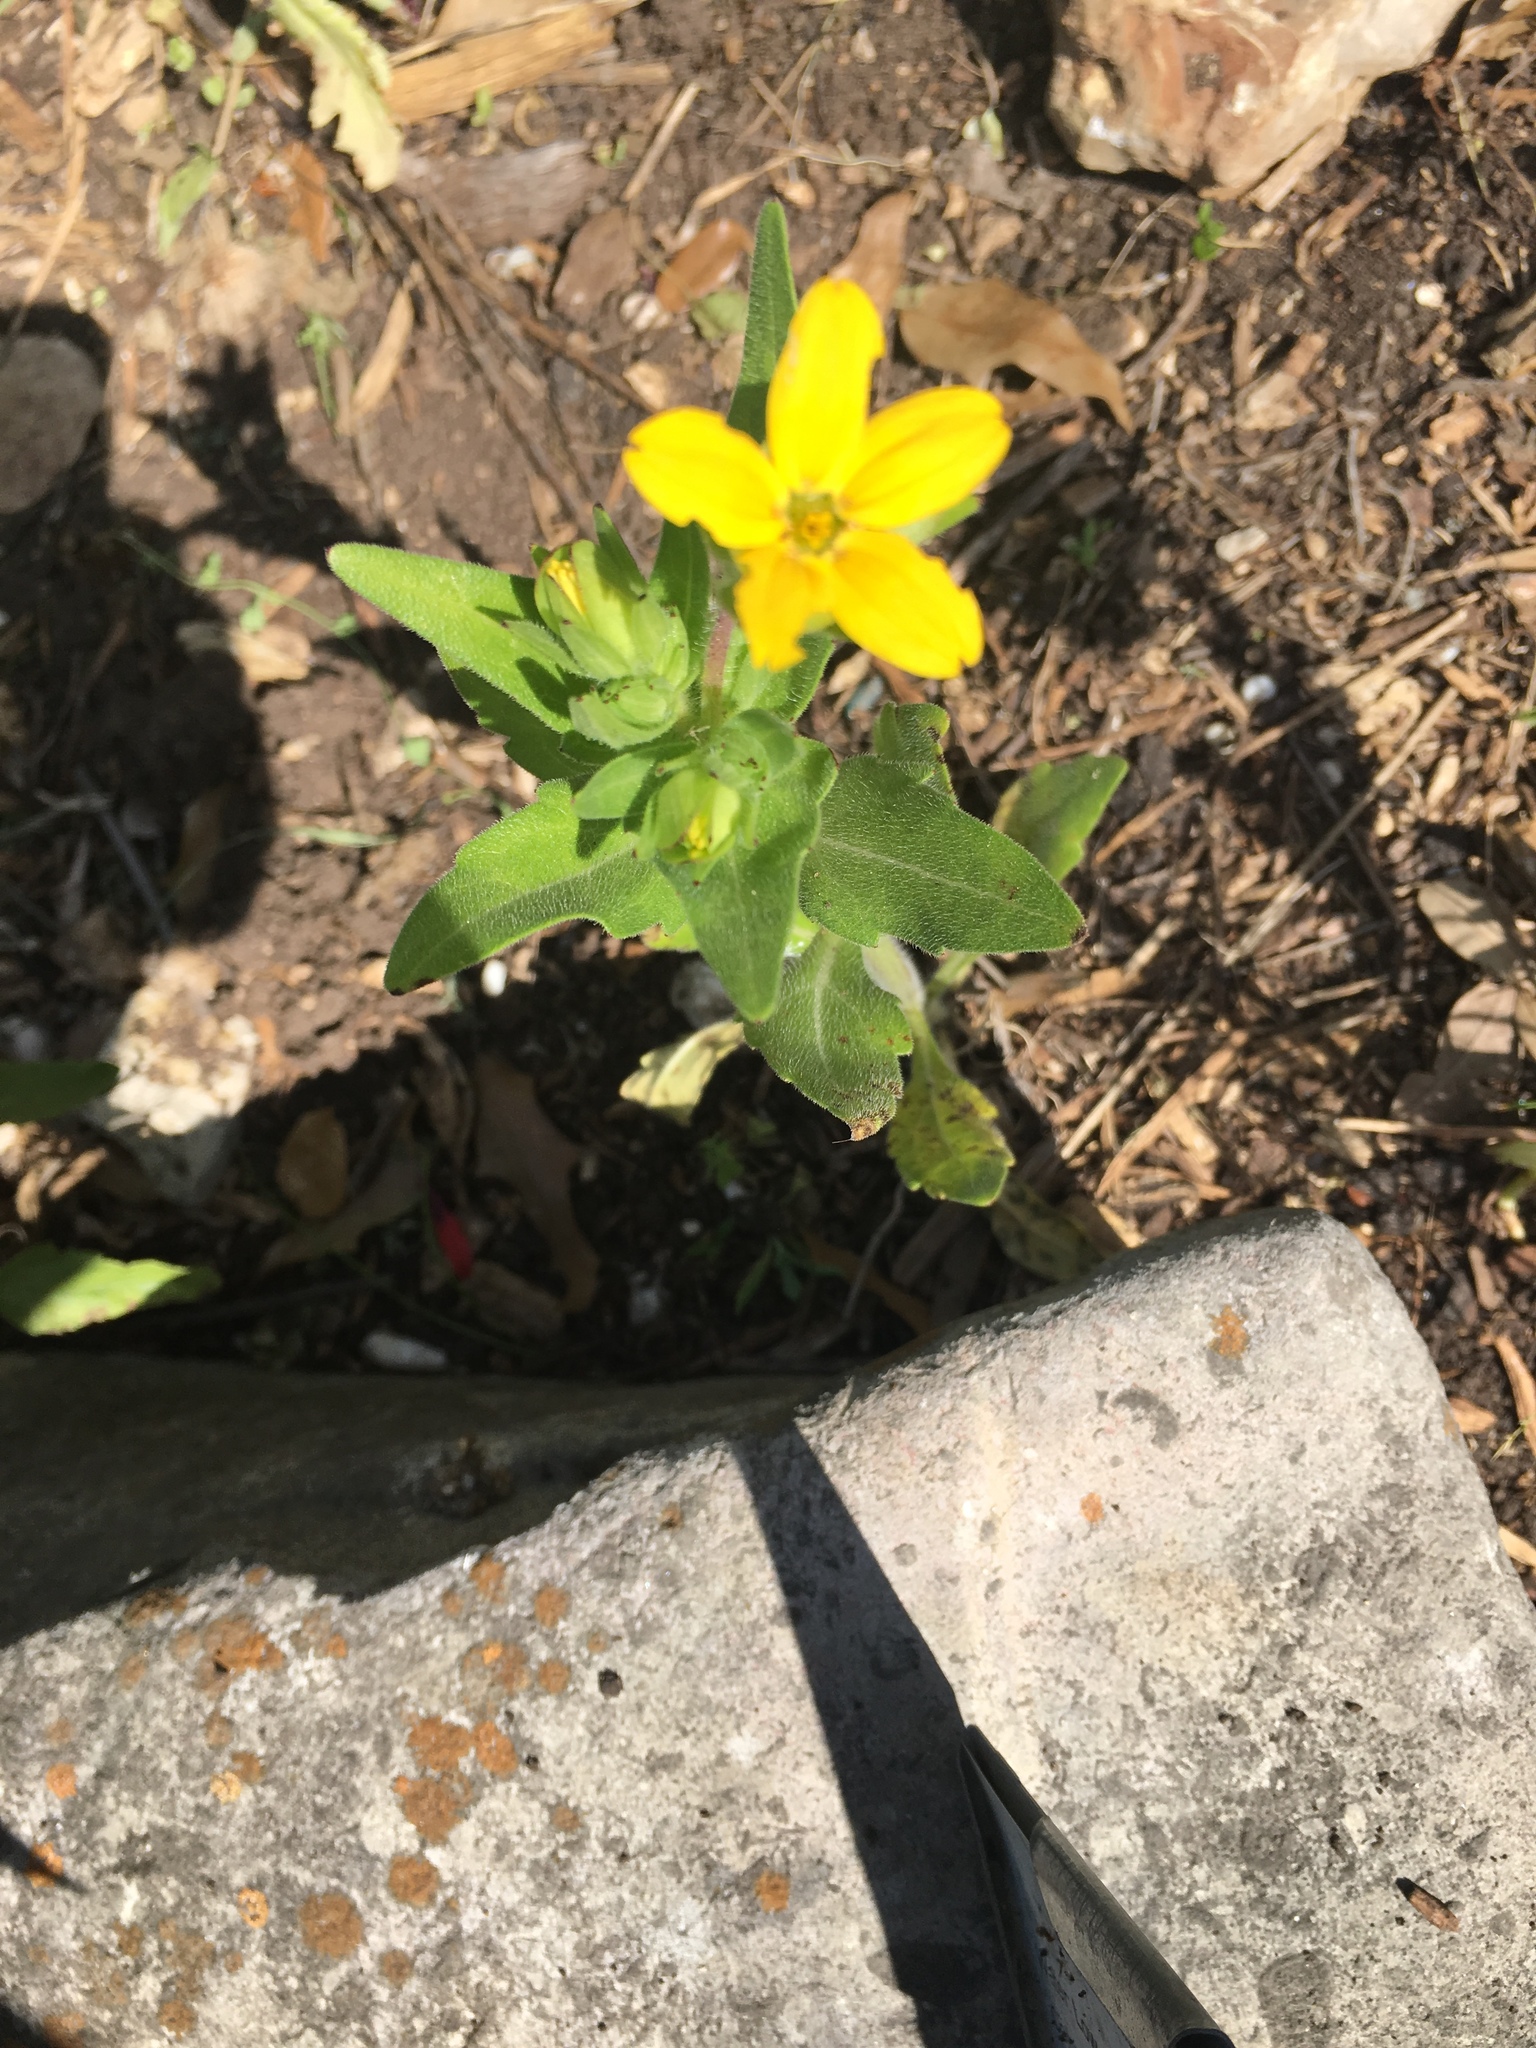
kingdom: Plantae
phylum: Tracheophyta
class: Magnoliopsida
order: Asterales
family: Asteraceae
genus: Lindheimera
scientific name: Lindheimera texana
